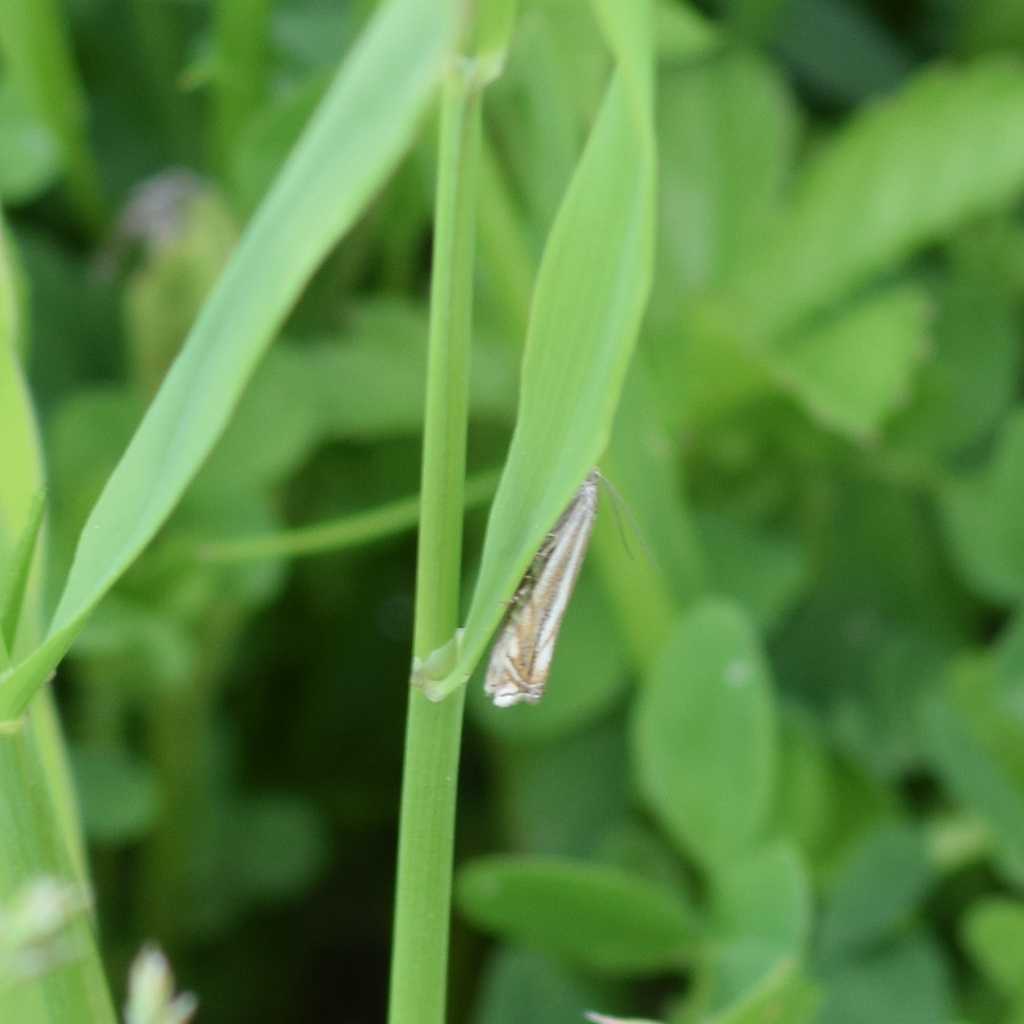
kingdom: Animalia
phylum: Arthropoda
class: Insecta
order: Lepidoptera
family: Crambidae
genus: Crambus
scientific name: Crambus nemorella
